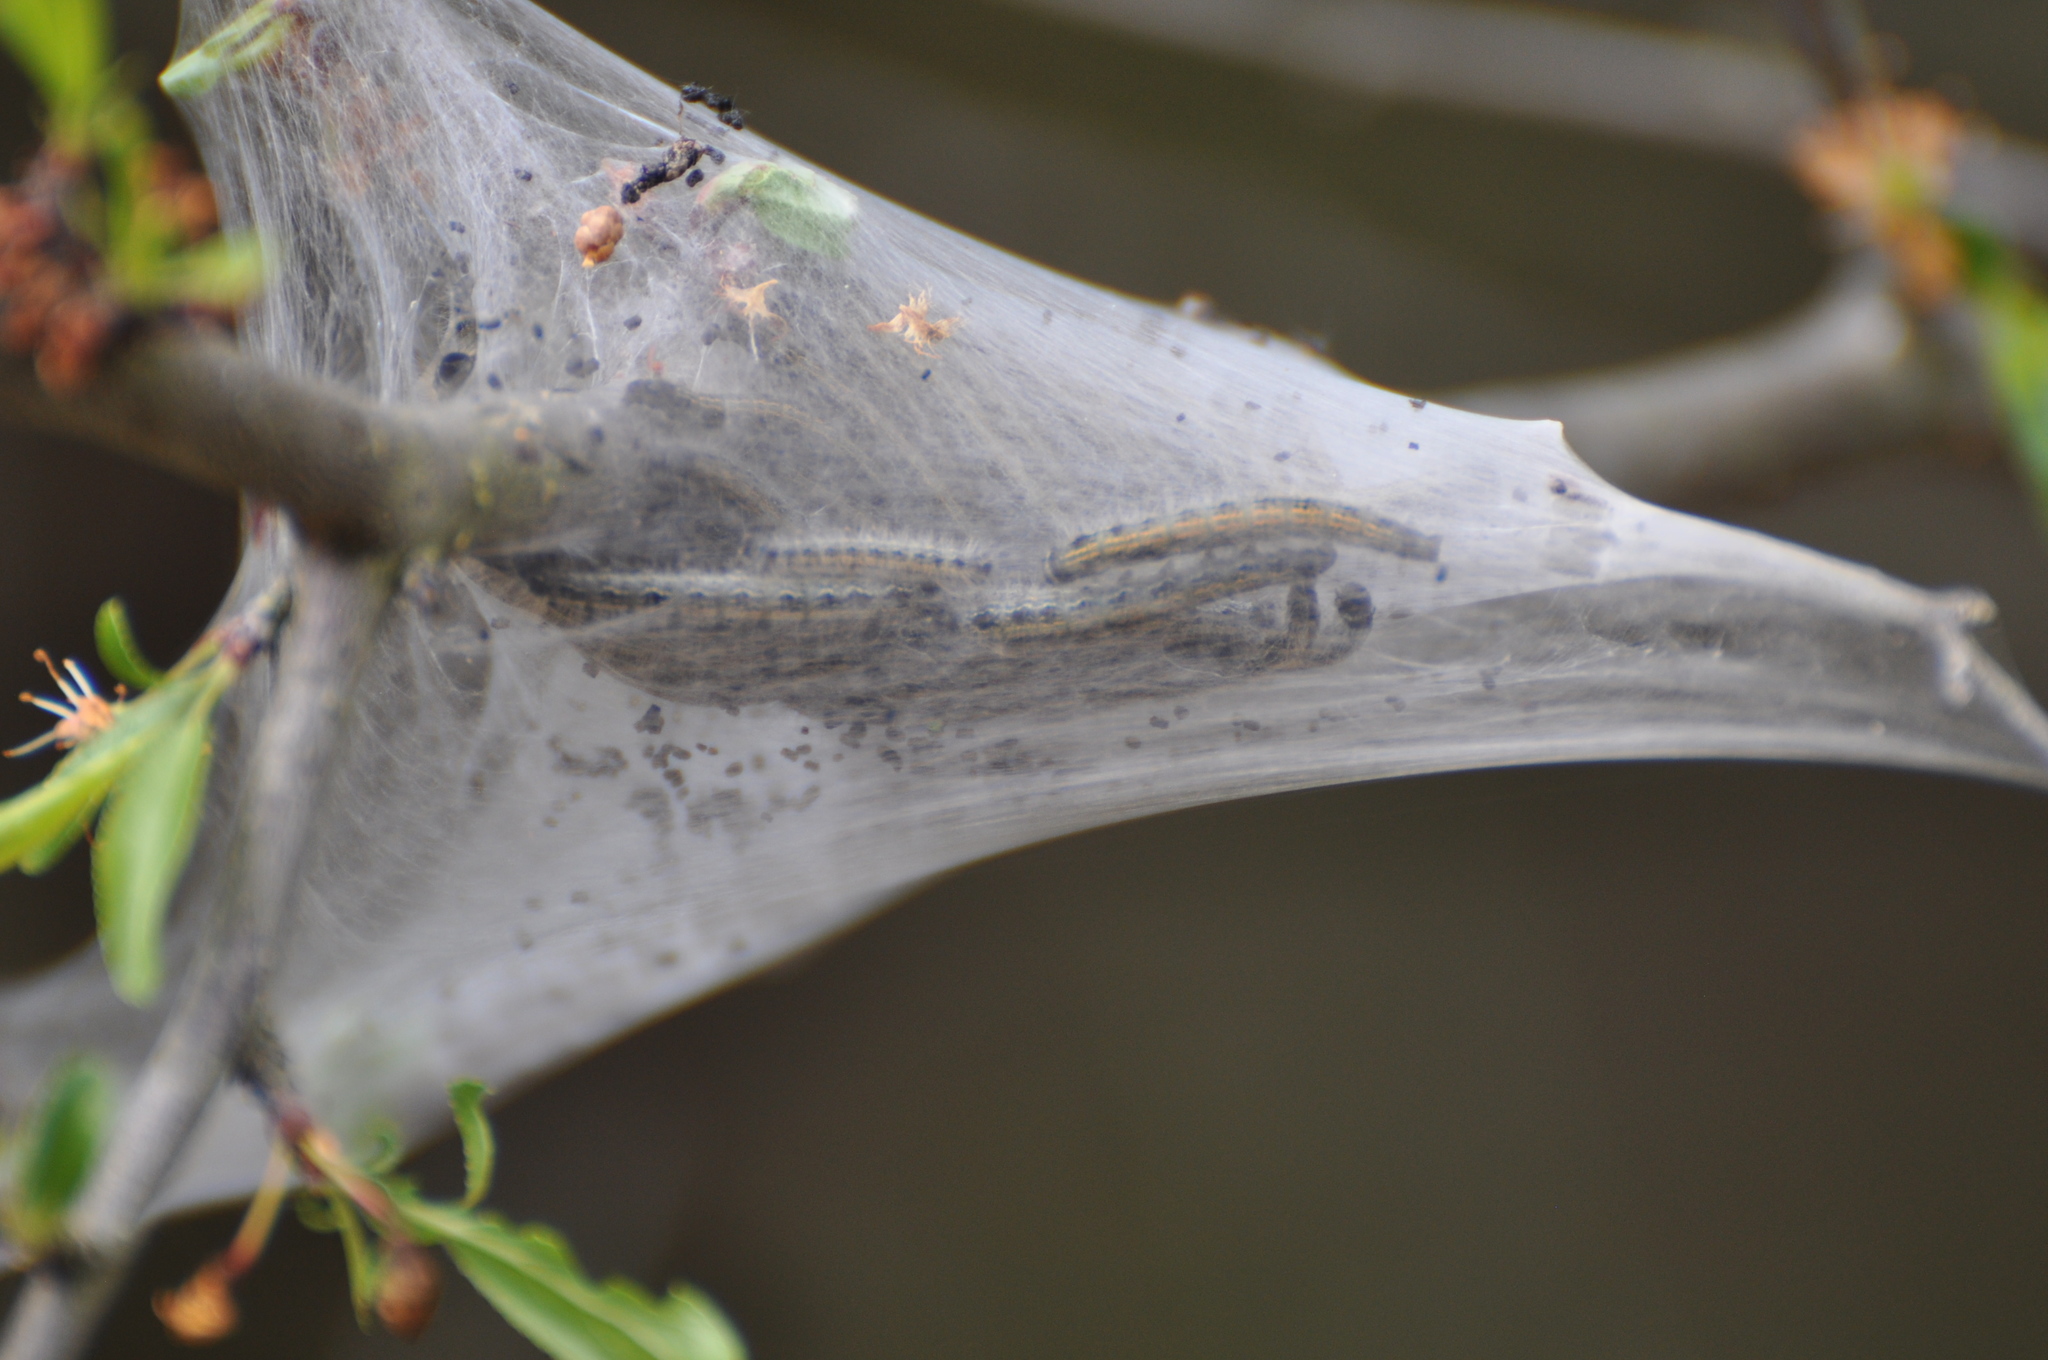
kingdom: Animalia
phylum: Arthropoda
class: Insecta
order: Lepidoptera
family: Lasiocampidae
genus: Malacosoma
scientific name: Malacosoma americana
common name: Eastern tent caterpillar moth
